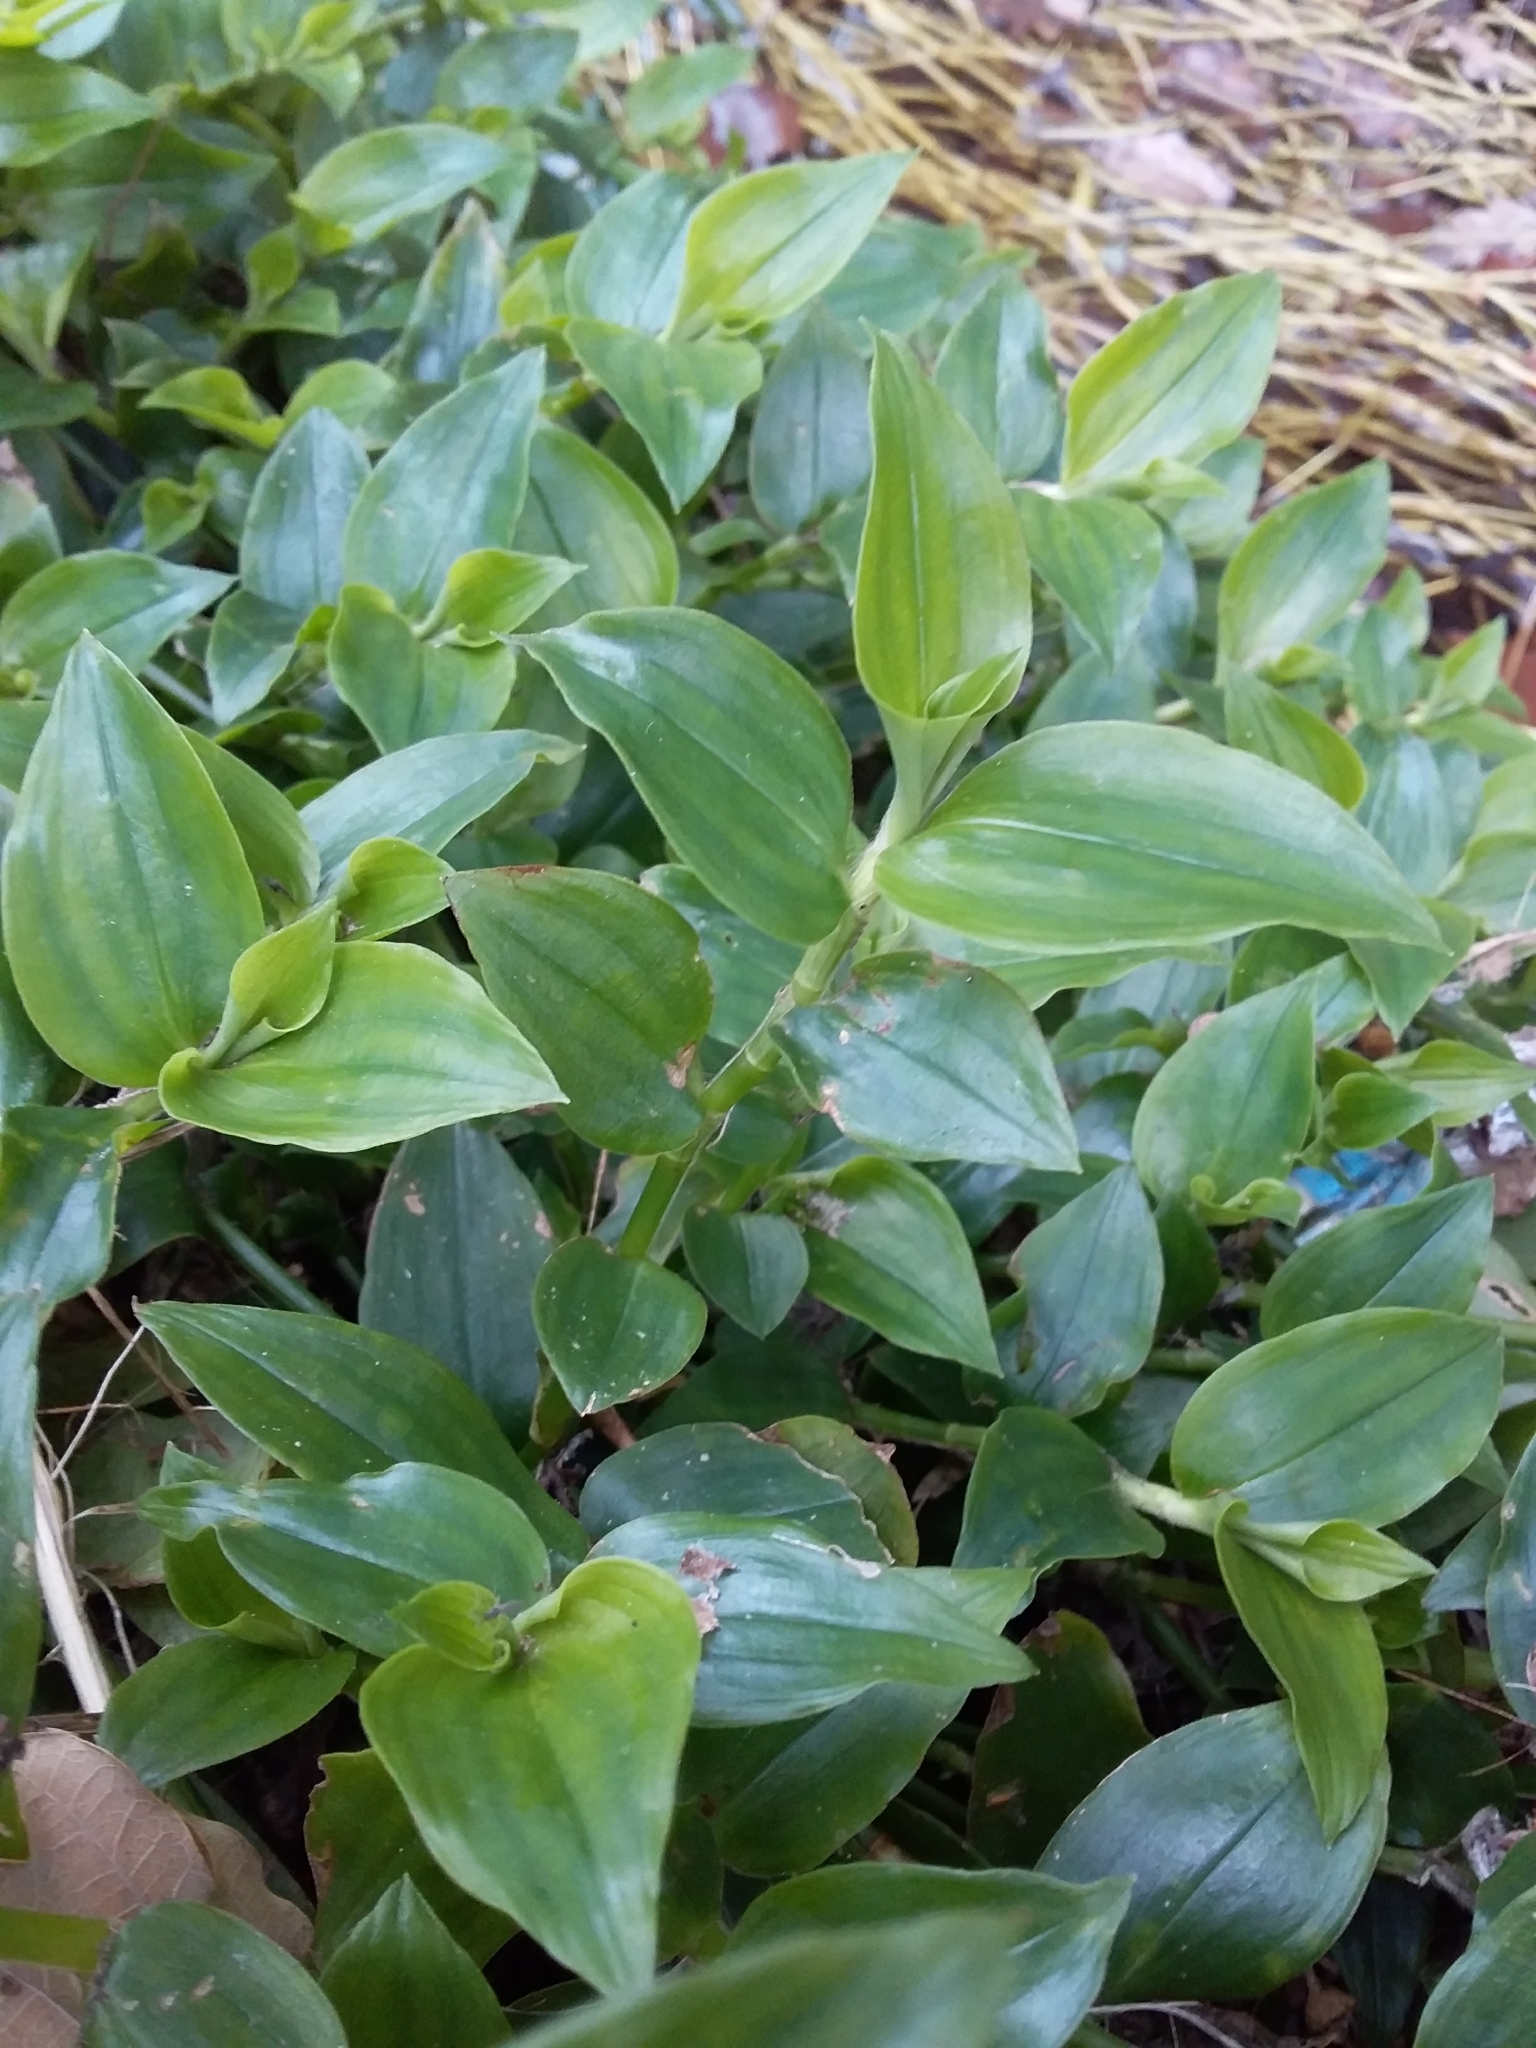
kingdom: Plantae
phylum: Tracheophyta
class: Liliopsida
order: Commelinales
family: Commelinaceae
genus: Tradescantia
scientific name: Tradescantia fluminensis
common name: Wandering-jew
